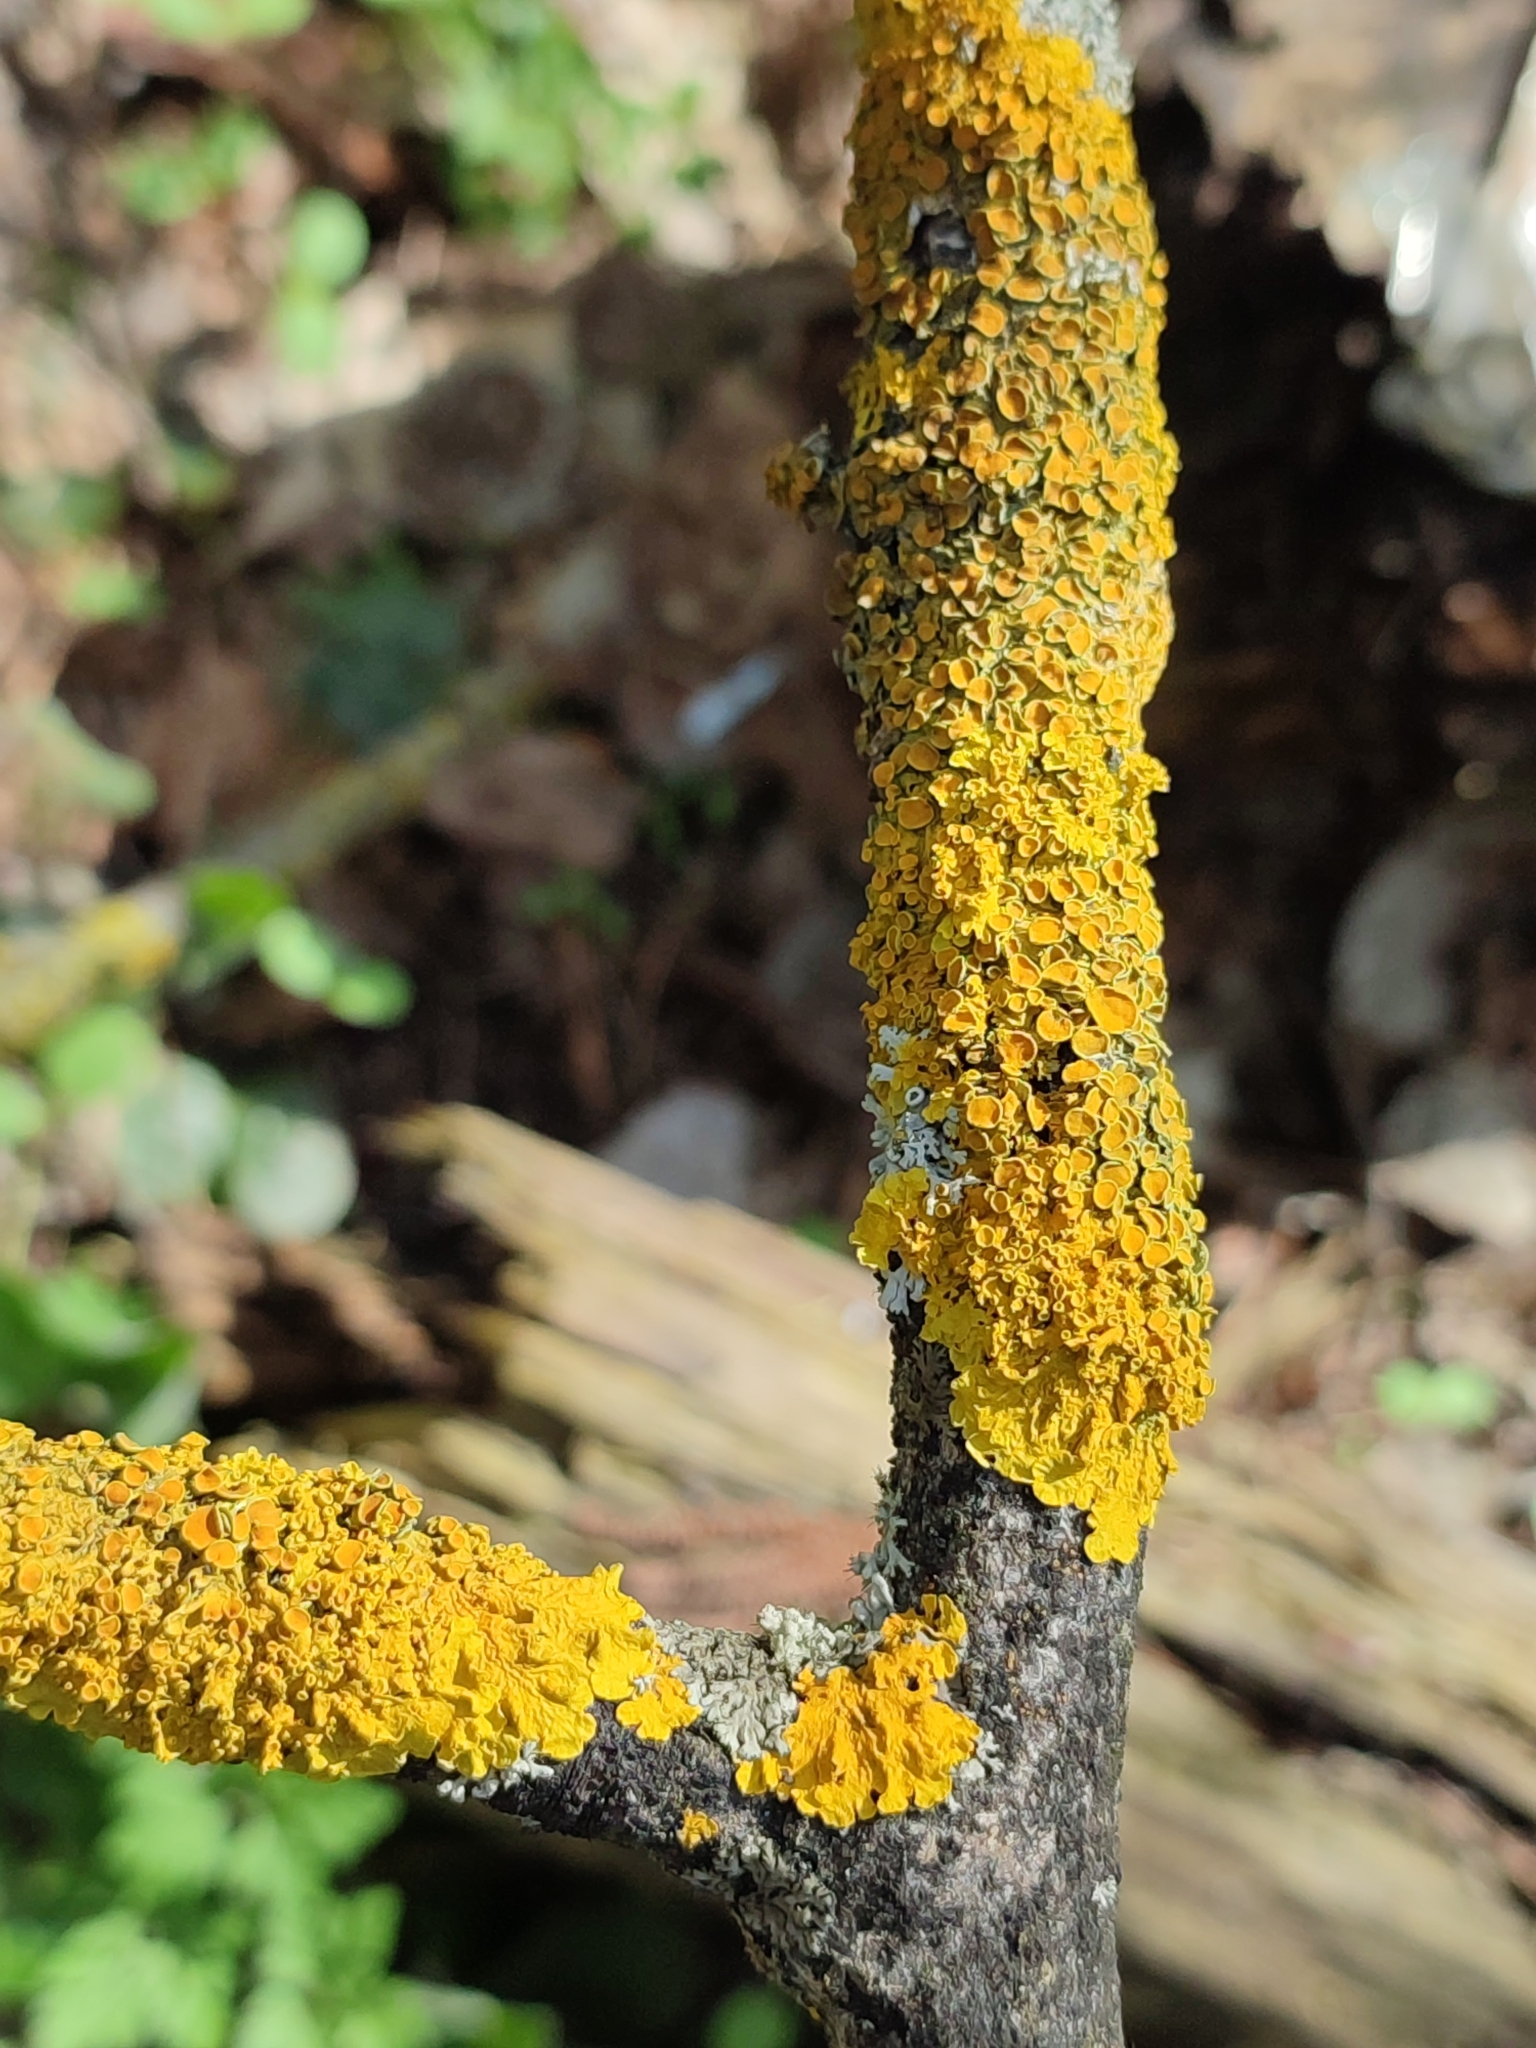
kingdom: Fungi
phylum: Ascomycota
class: Lecanoromycetes
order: Teloschistales
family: Teloschistaceae
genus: Xanthoria
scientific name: Xanthoria parietina
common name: Common orange lichen
